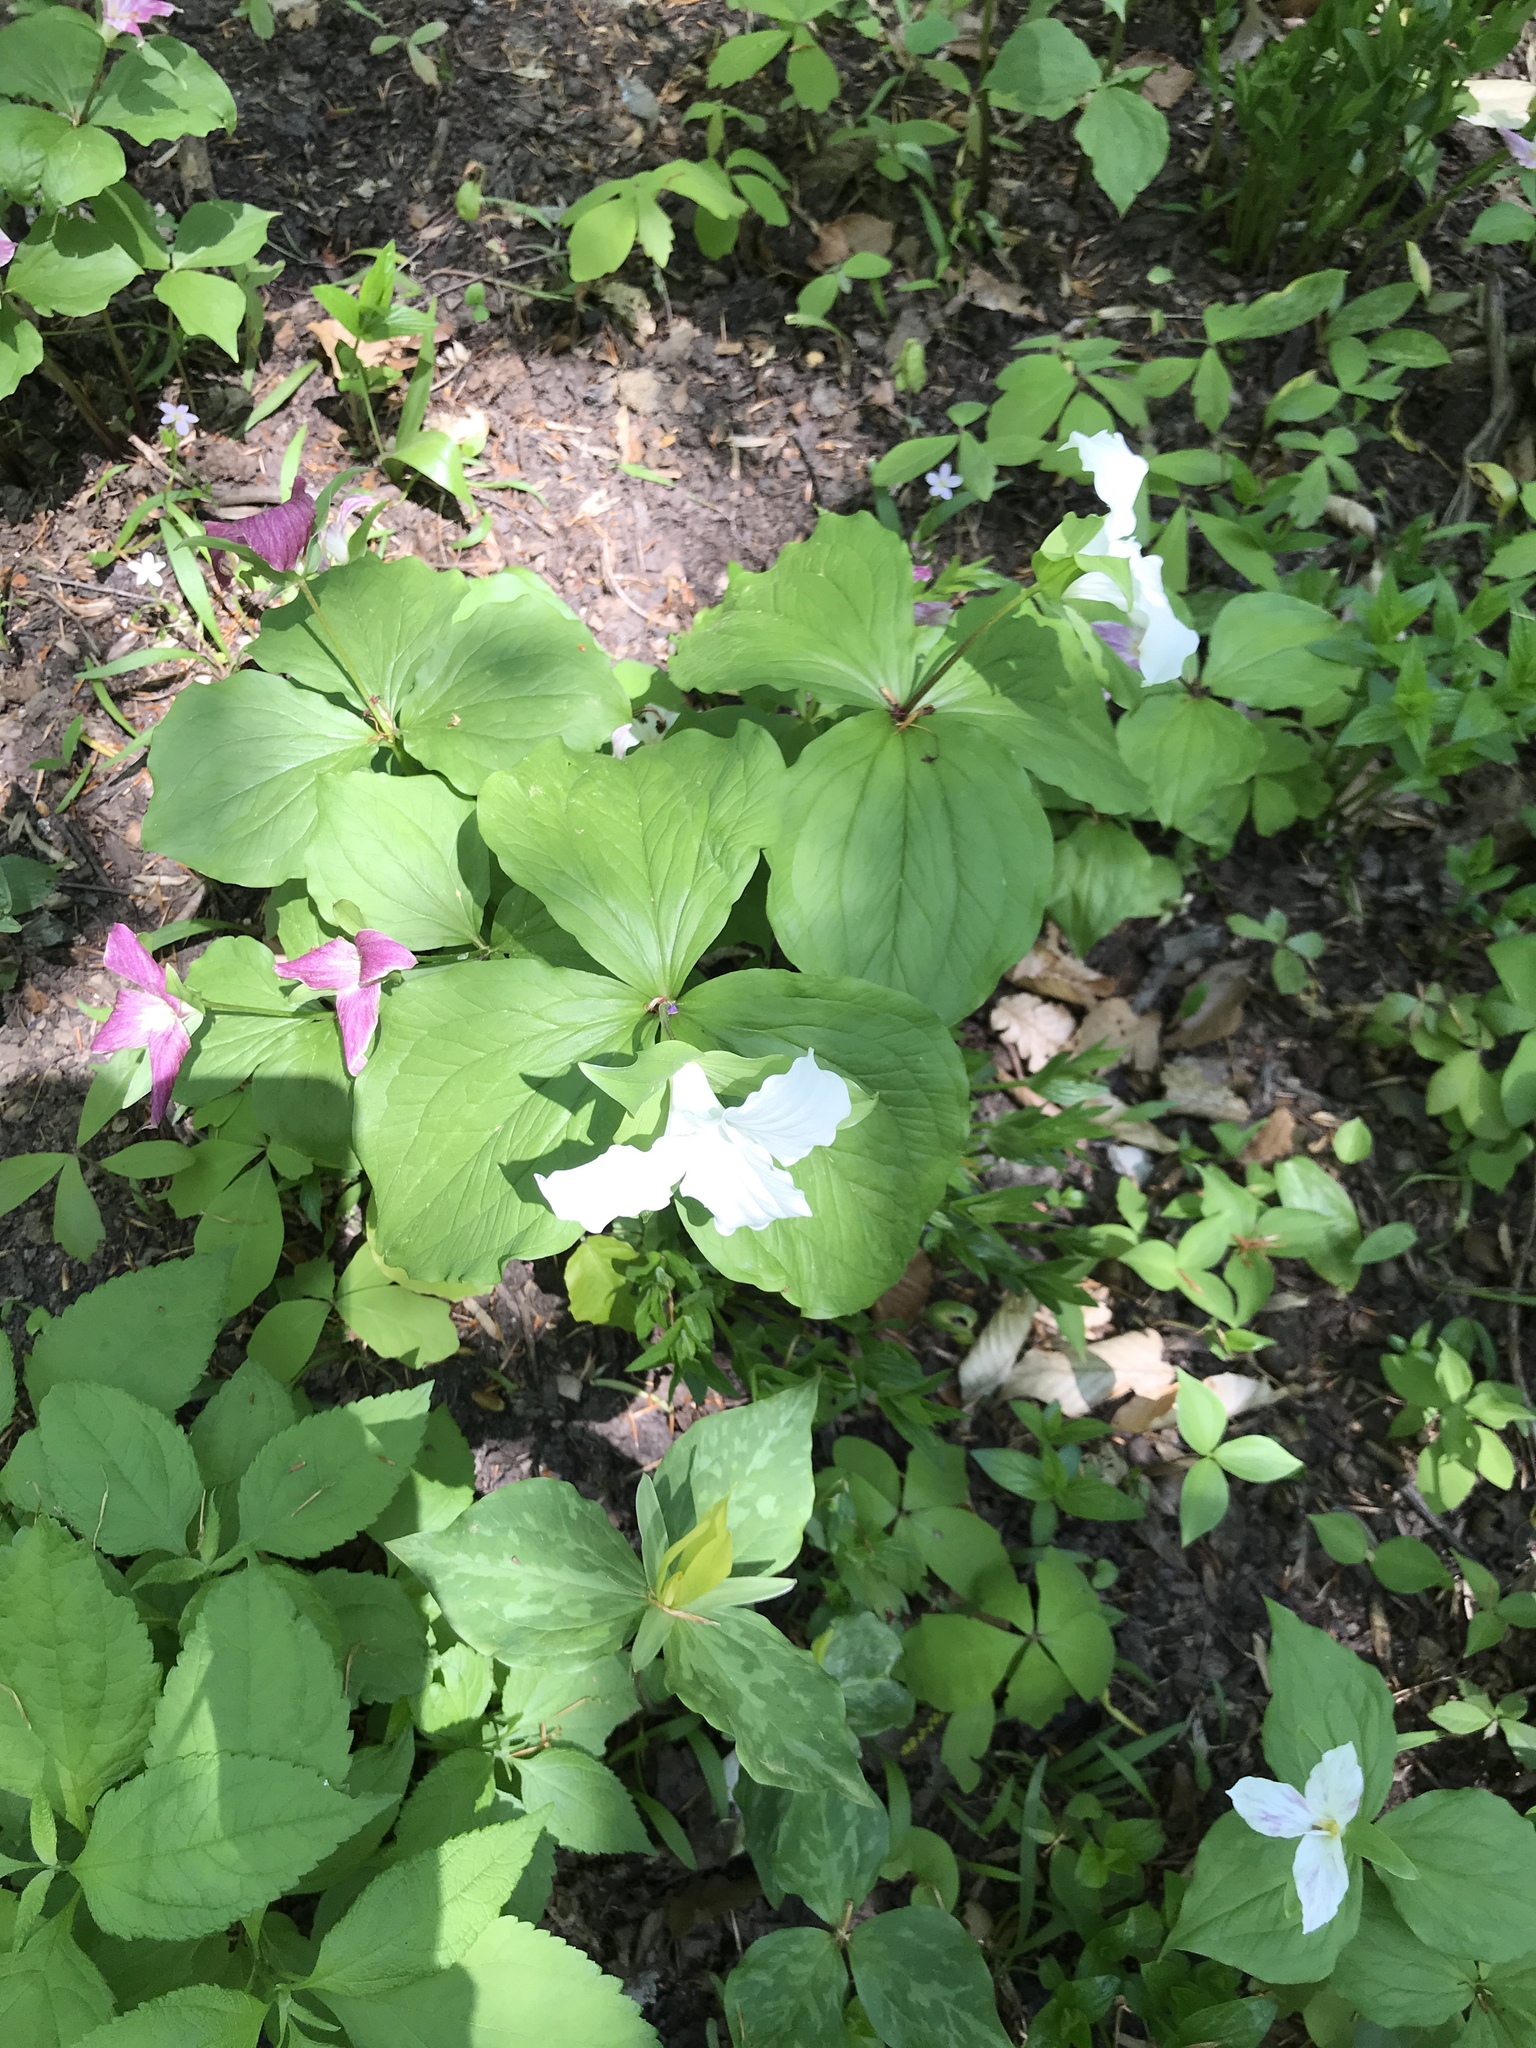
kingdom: Plantae
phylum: Tracheophyta
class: Liliopsida
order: Liliales
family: Melanthiaceae
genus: Trillium
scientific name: Trillium grandiflorum
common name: Great white trillium
